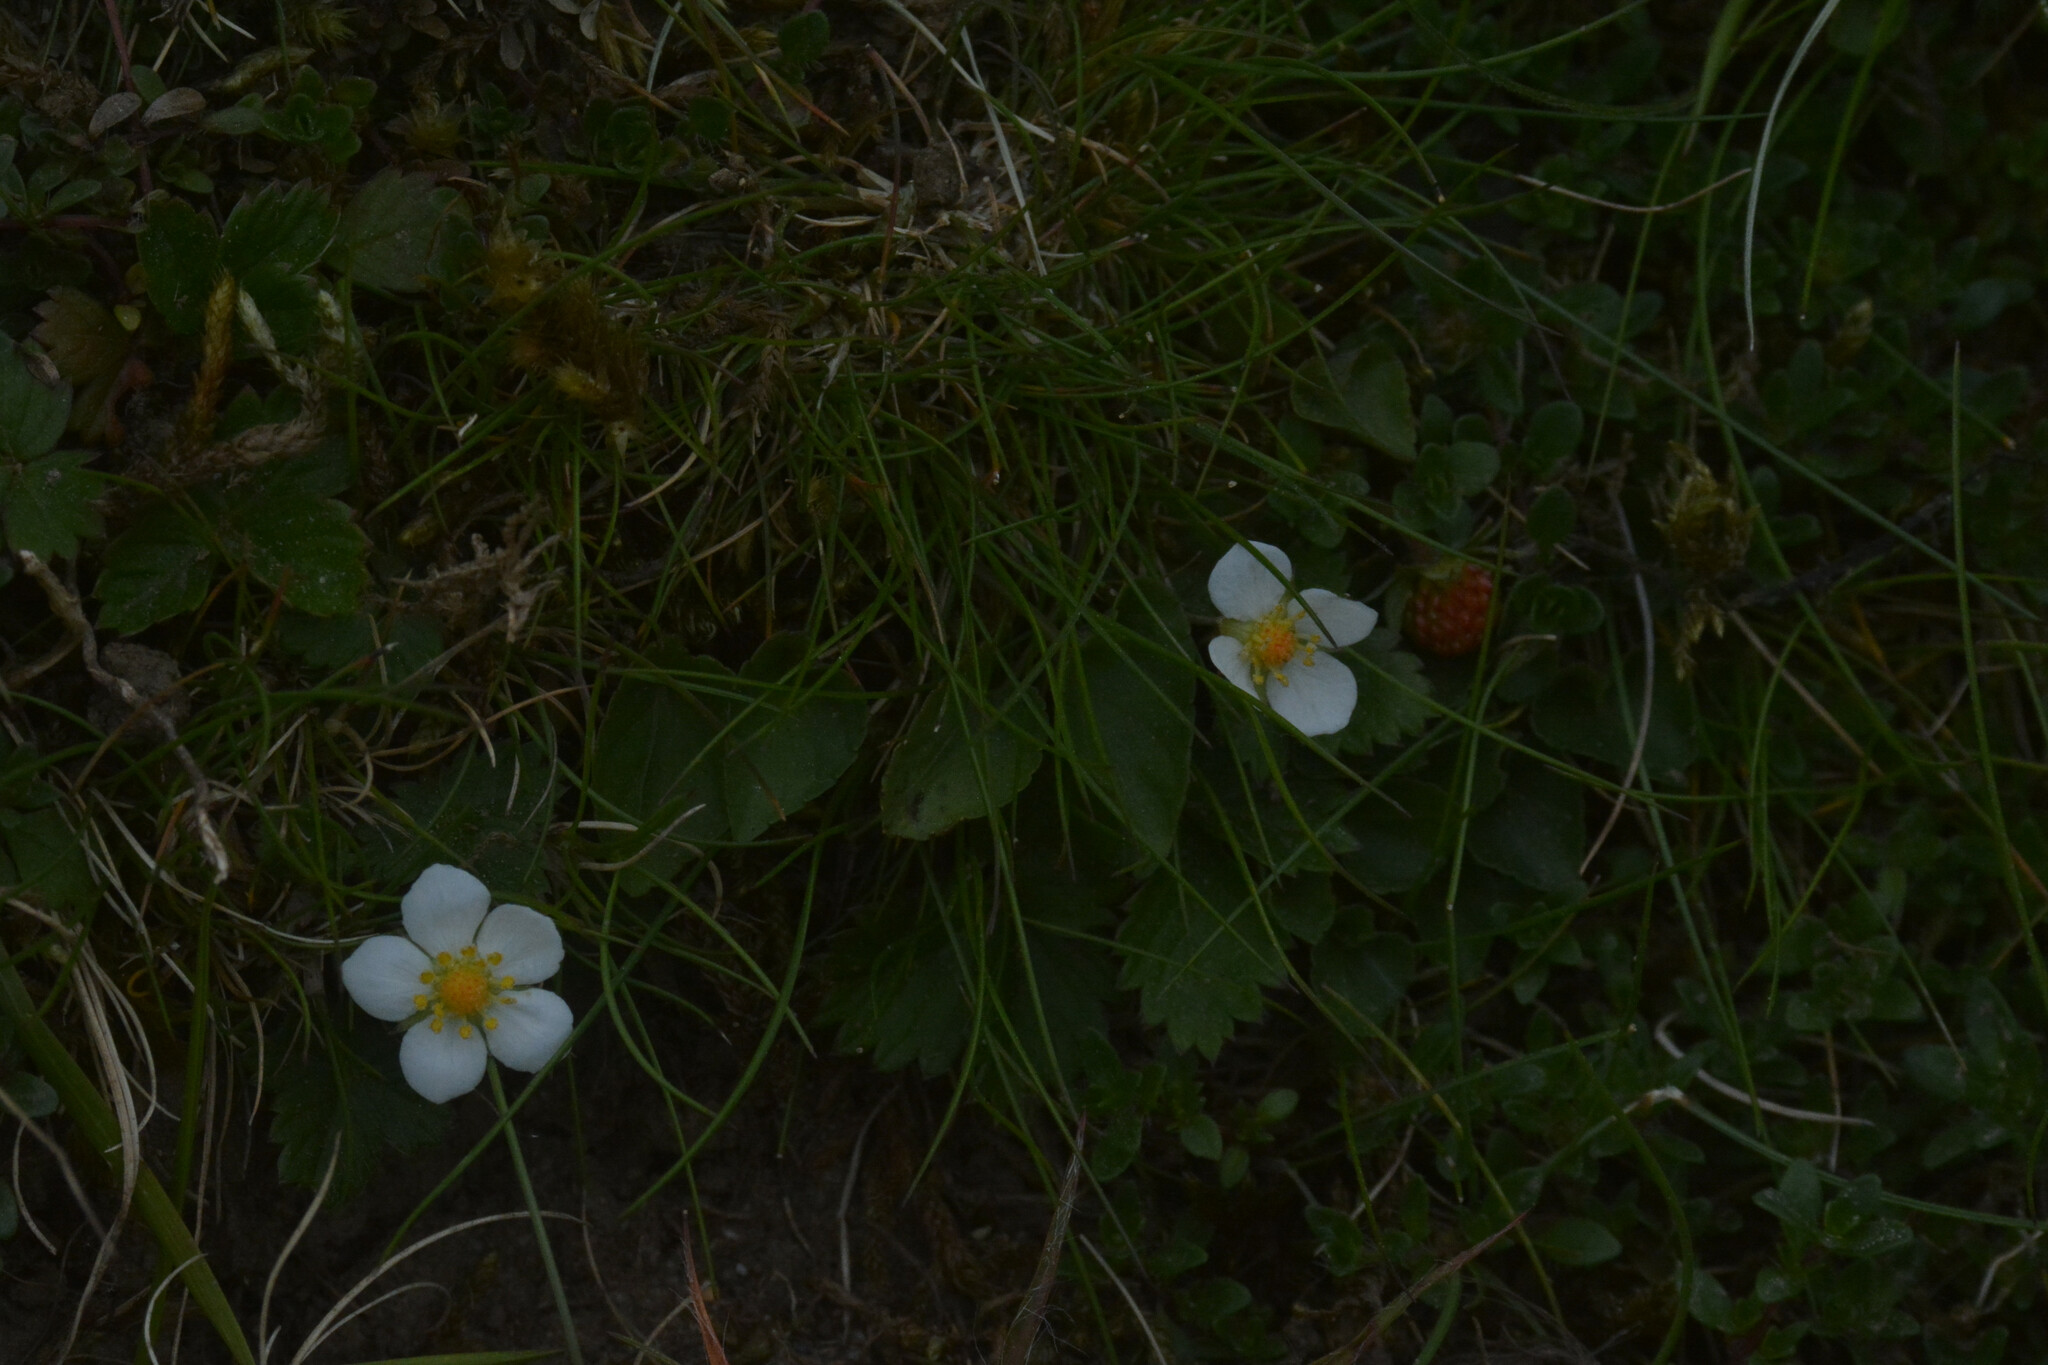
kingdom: Plantae
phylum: Tracheophyta
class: Magnoliopsida
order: Rosales
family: Rosaceae
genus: Fragaria
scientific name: Fragaria vesca
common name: Wild strawberry
